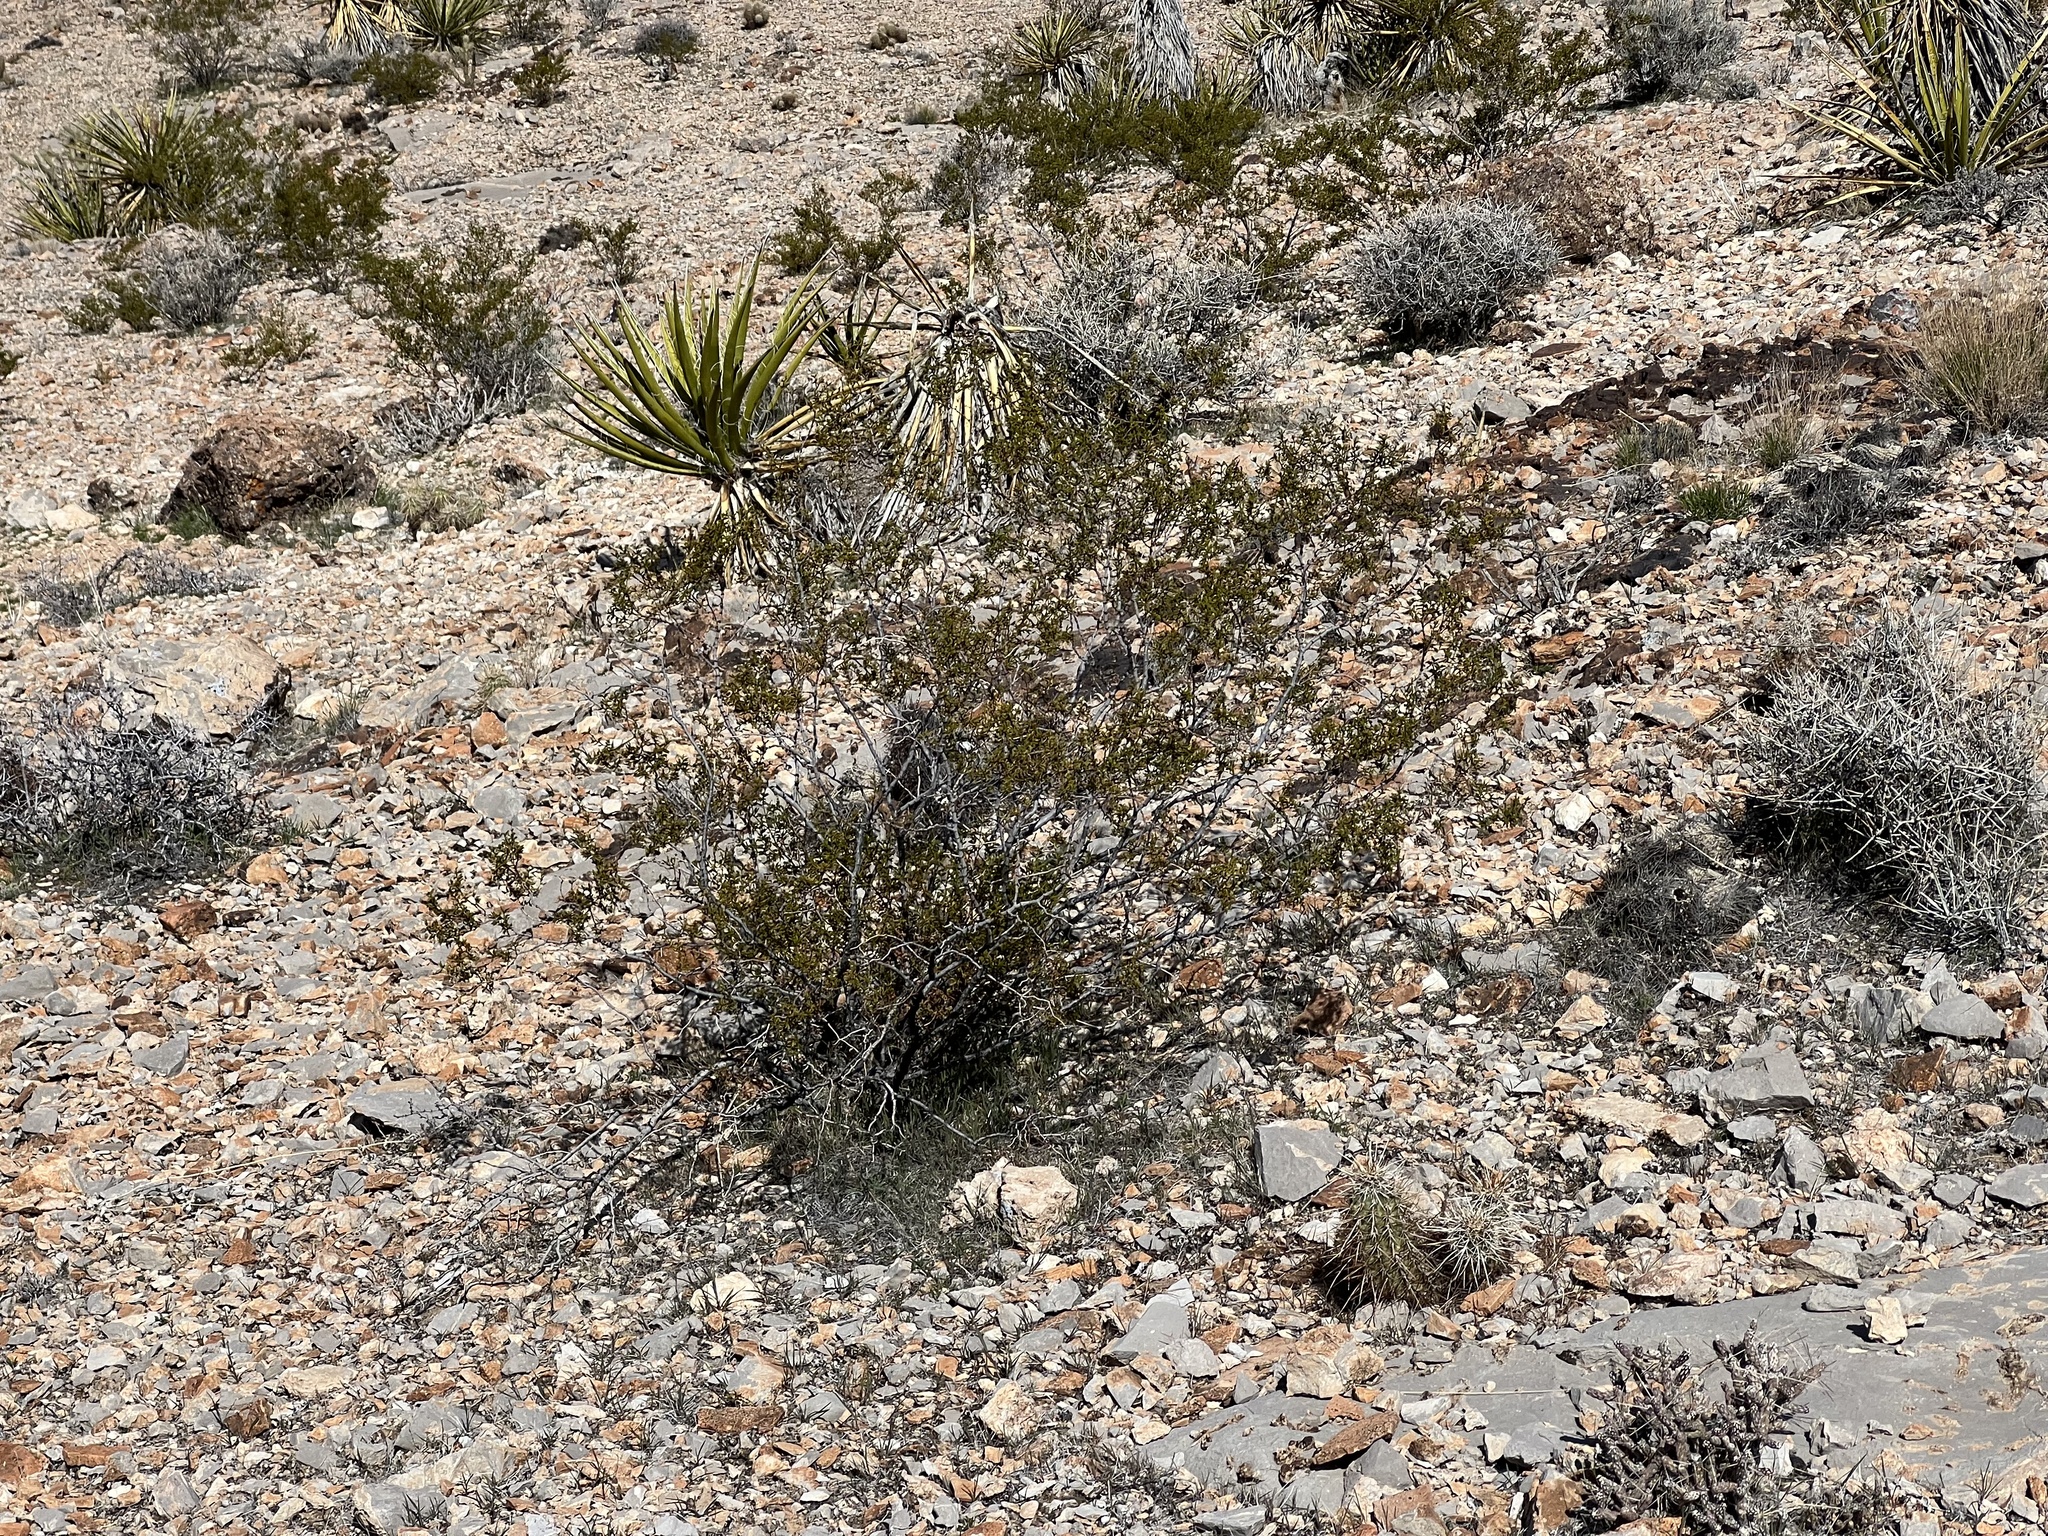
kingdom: Plantae
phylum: Tracheophyta
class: Magnoliopsida
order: Zygophyllales
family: Zygophyllaceae
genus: Larrea
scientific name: Larrea tridentata
